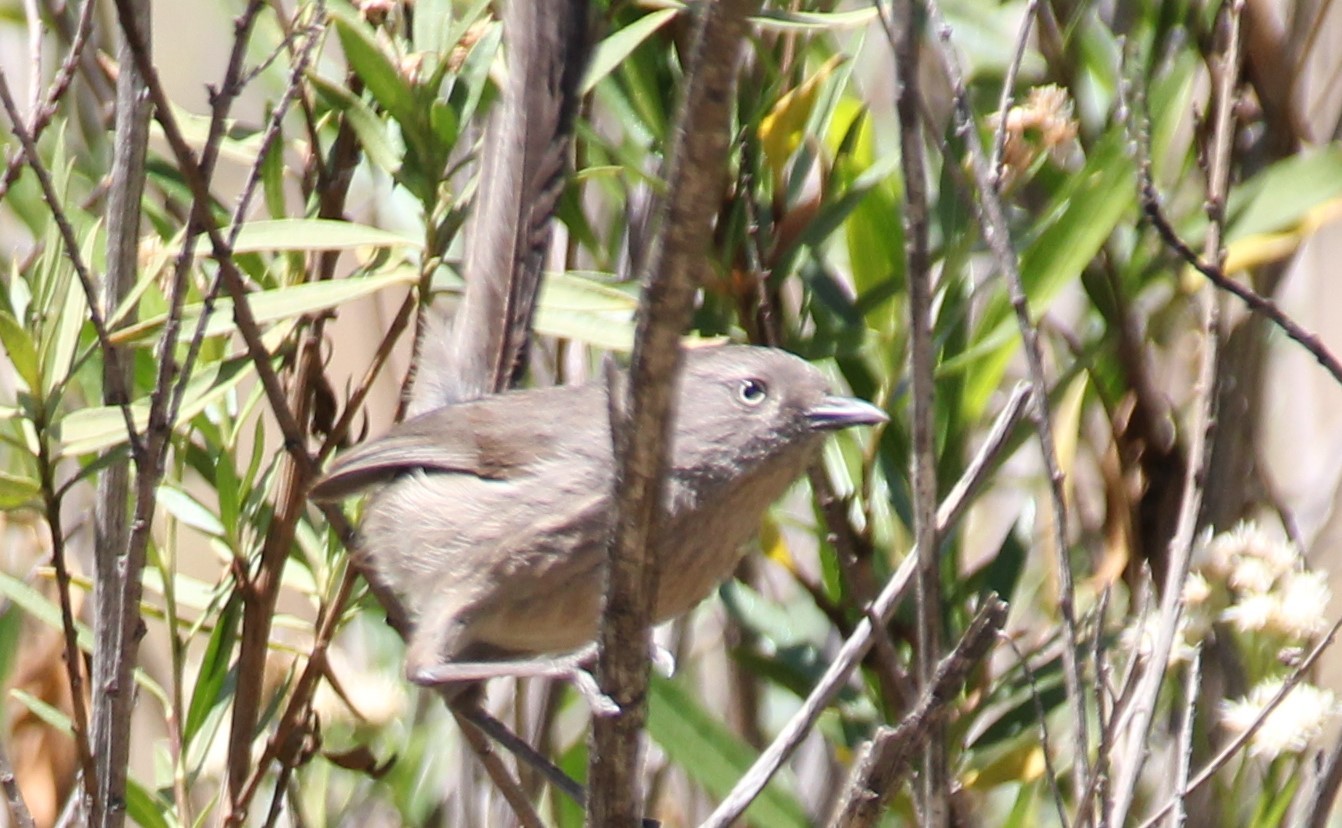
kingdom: Animalia
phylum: Chordata
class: Aves
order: Passeriformes
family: Sylviidae
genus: Chamaea
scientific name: Chamaea fasciata
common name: Wrentit
